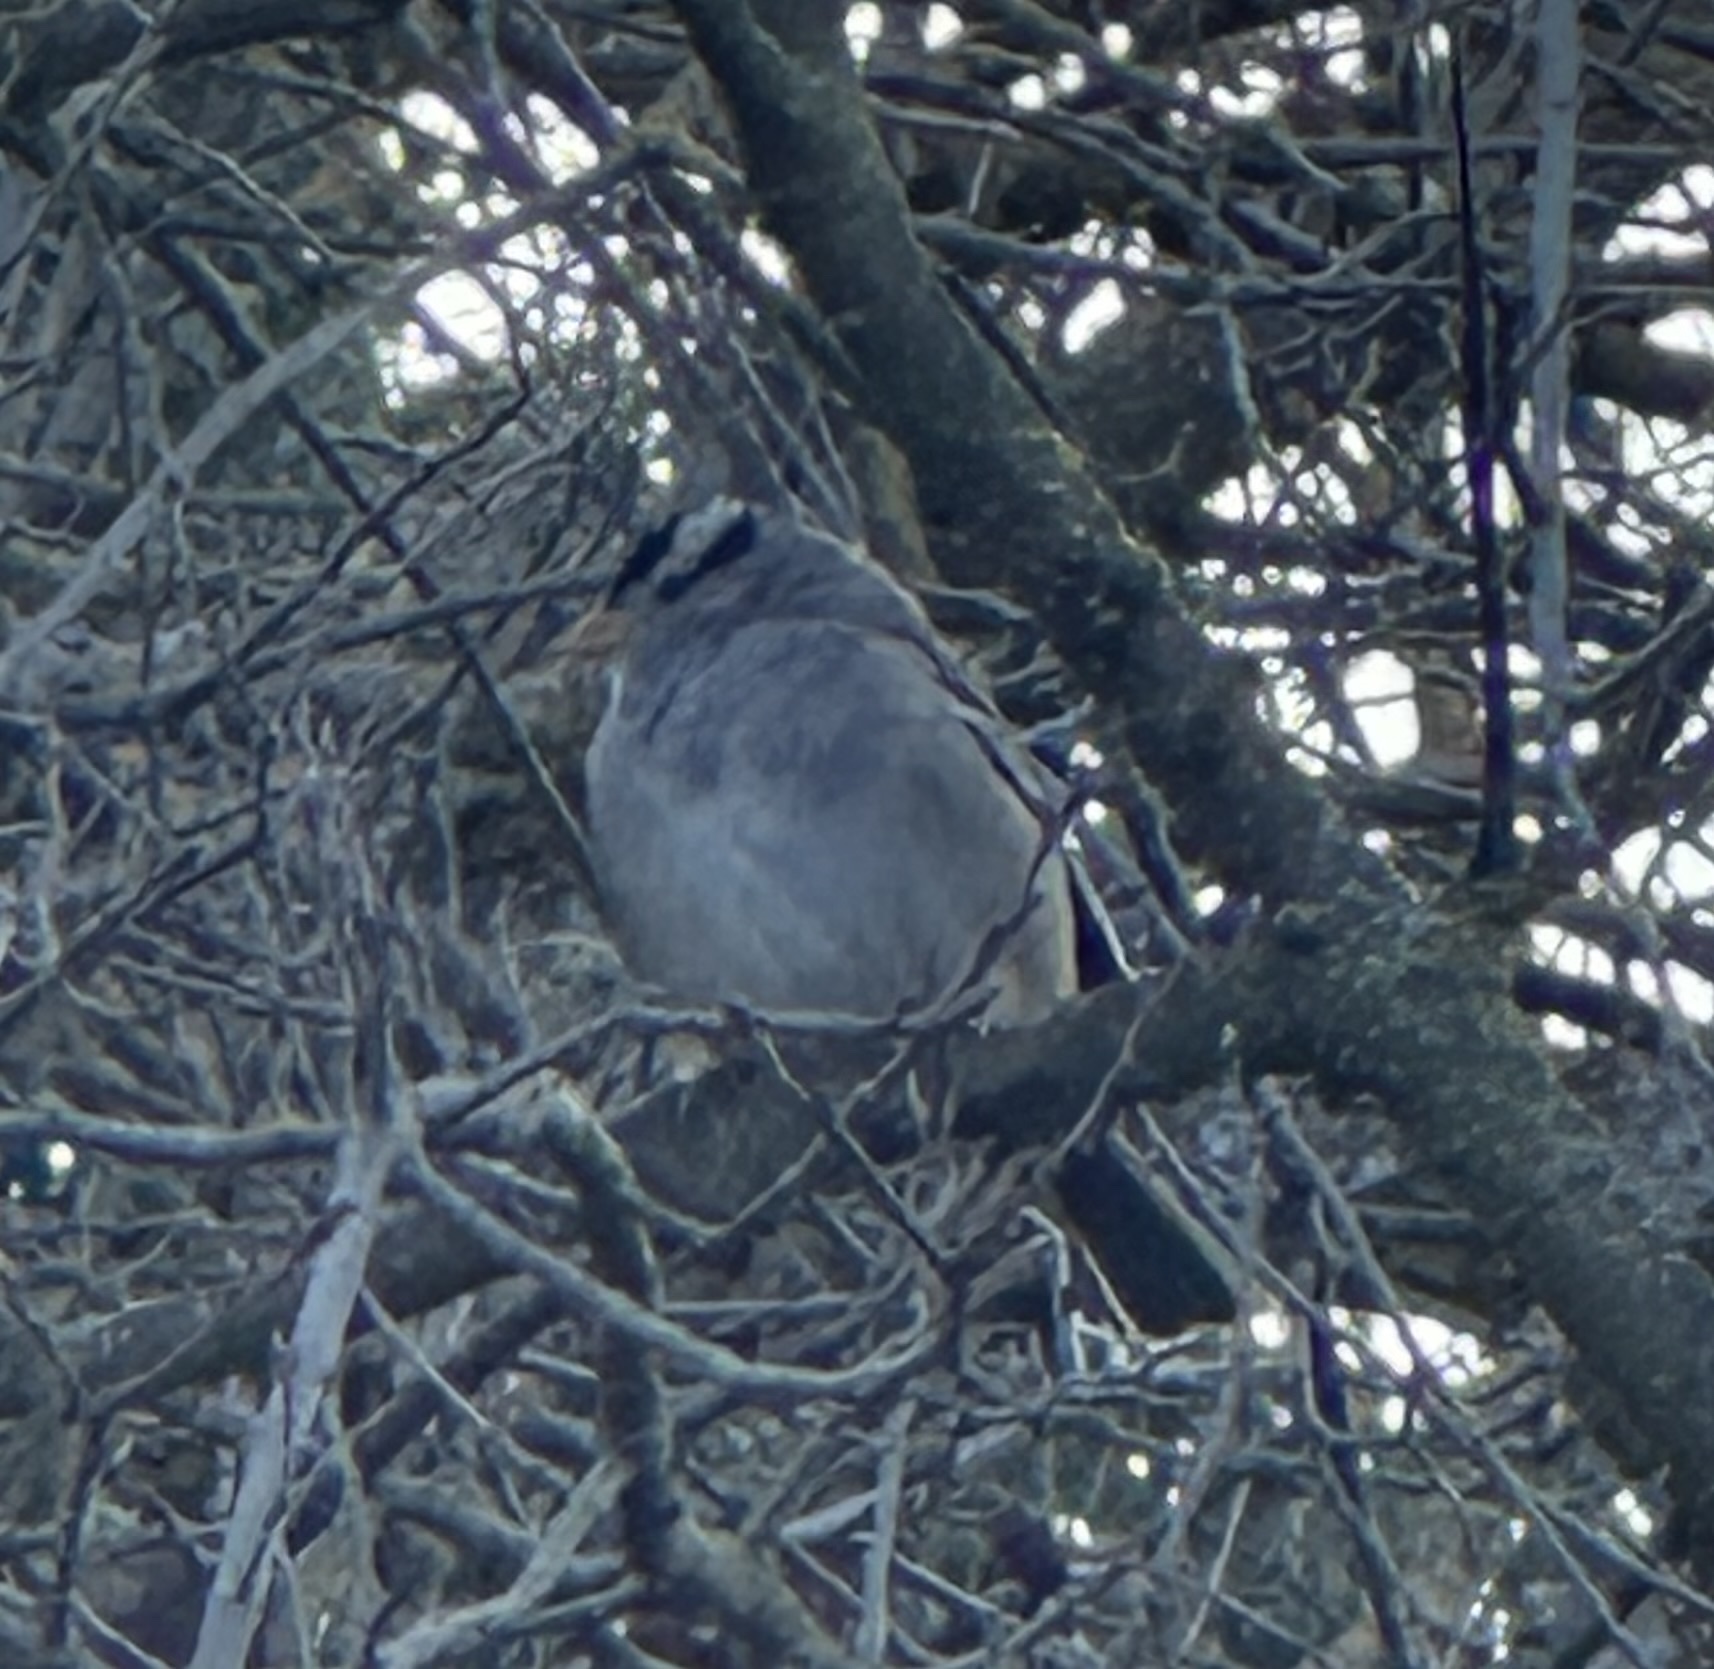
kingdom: Animalia
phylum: Chordata
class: Aves
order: Passeriformes
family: Passerellidae
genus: Zonotrichia
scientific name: Zonotrichia leucophrys
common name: White-crowned sparrow
